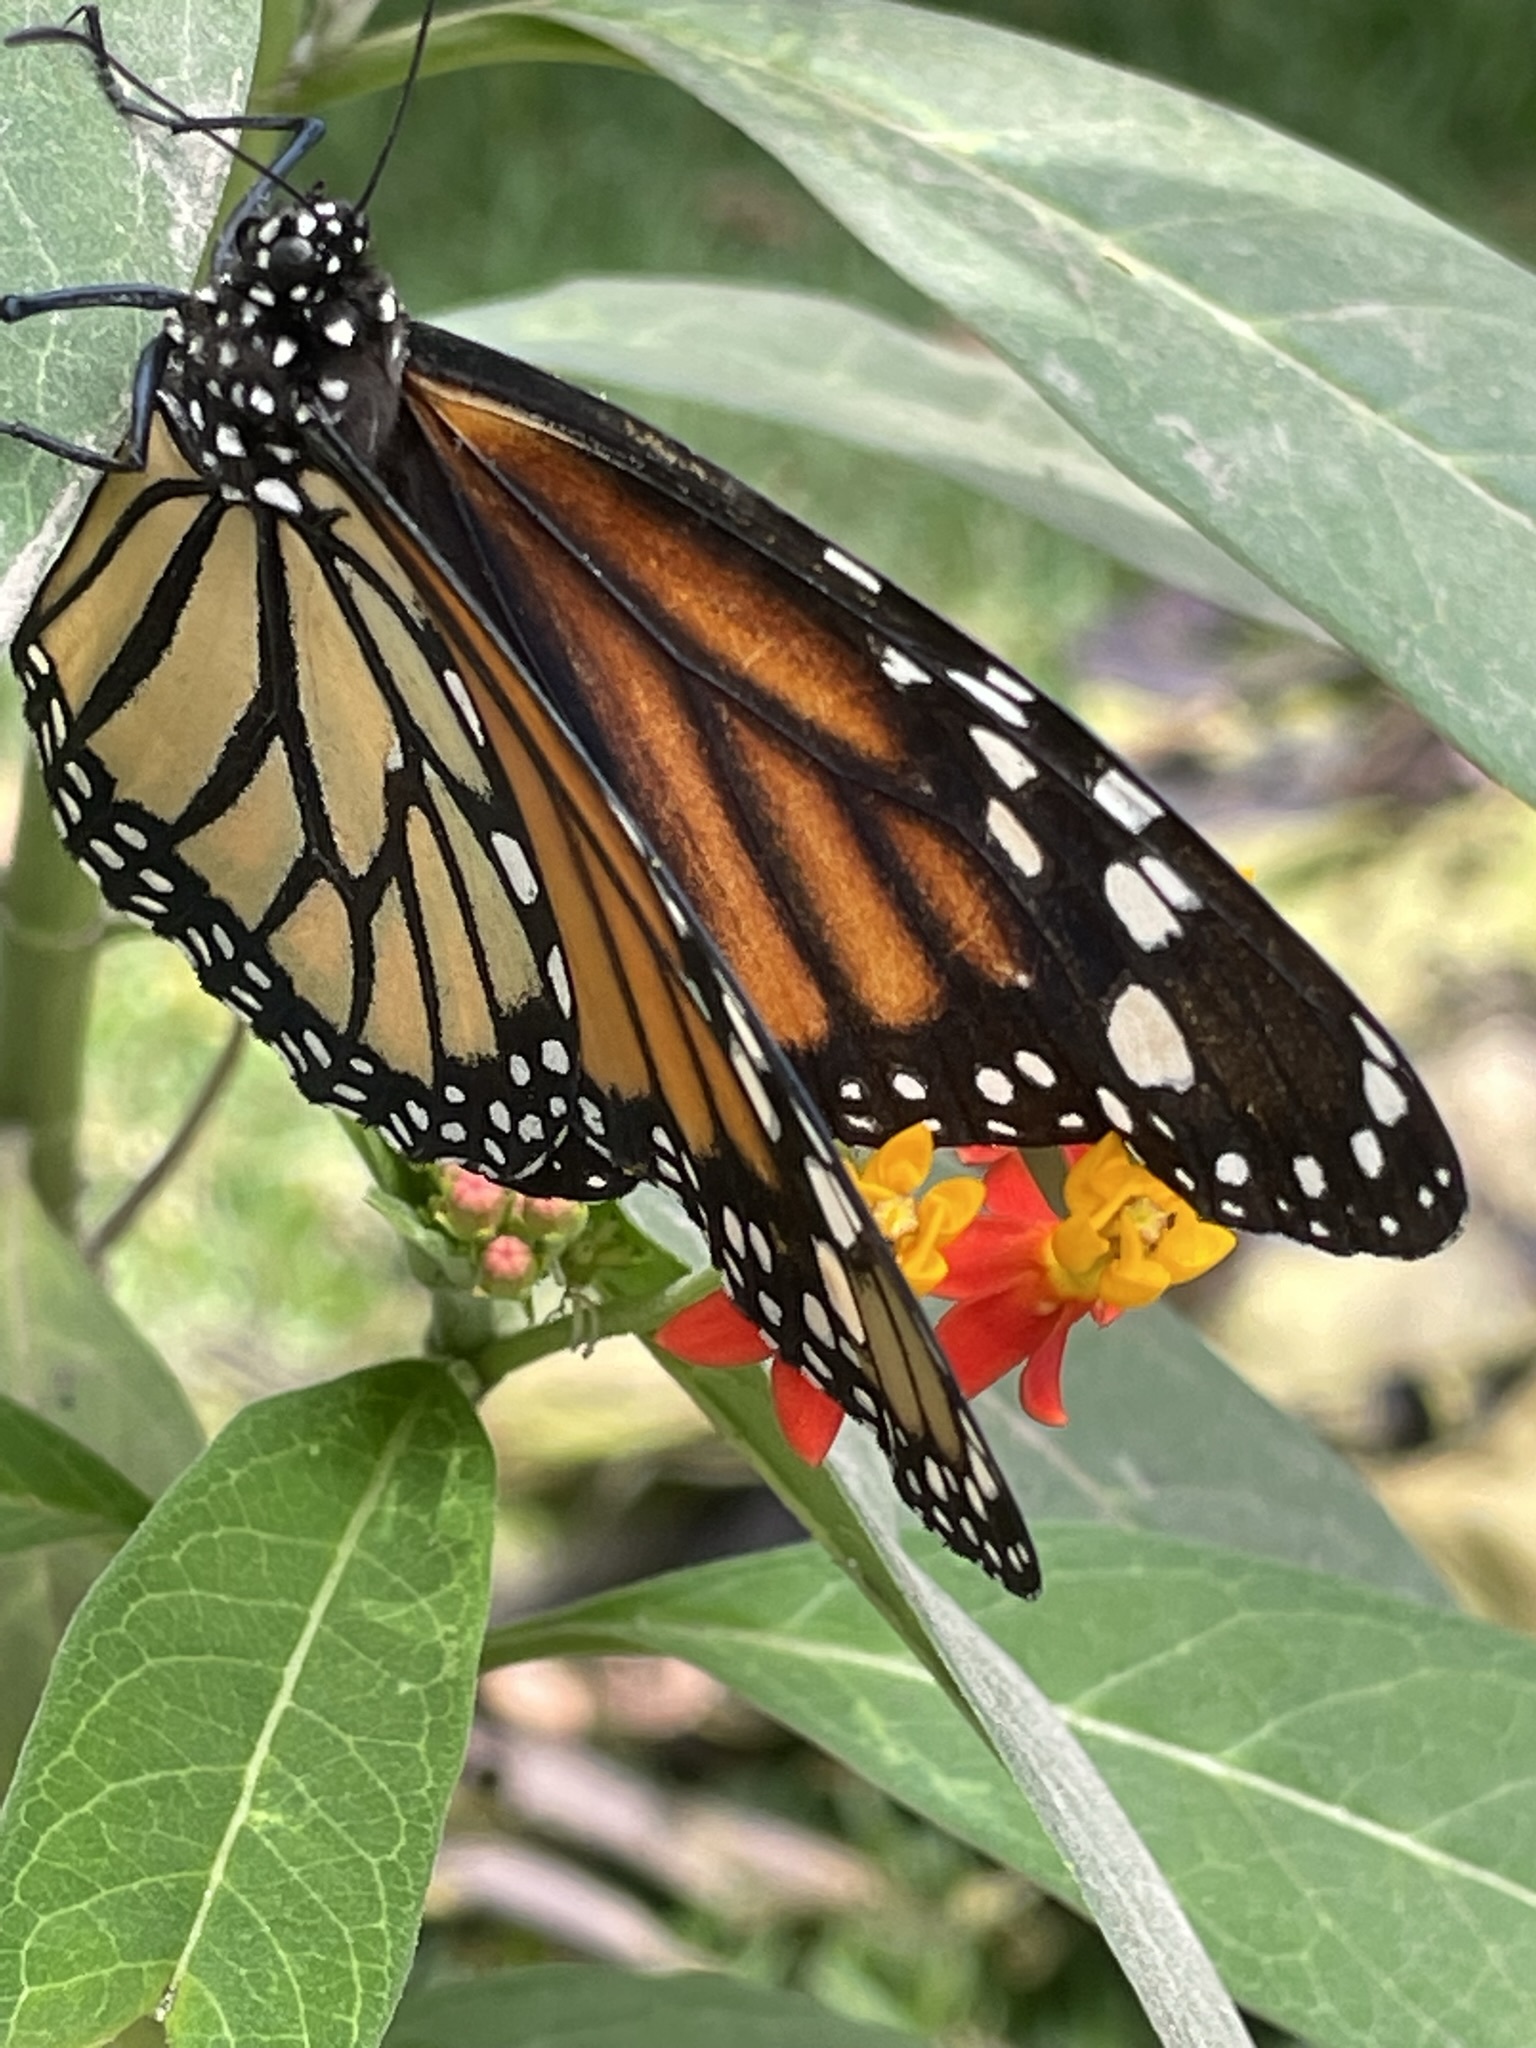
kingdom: Animalia
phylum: Arthropoda
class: Insecta
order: Lepidoptera
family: Nymphalidae
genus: Danaus
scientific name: Danaus plexippus
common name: Monarch
